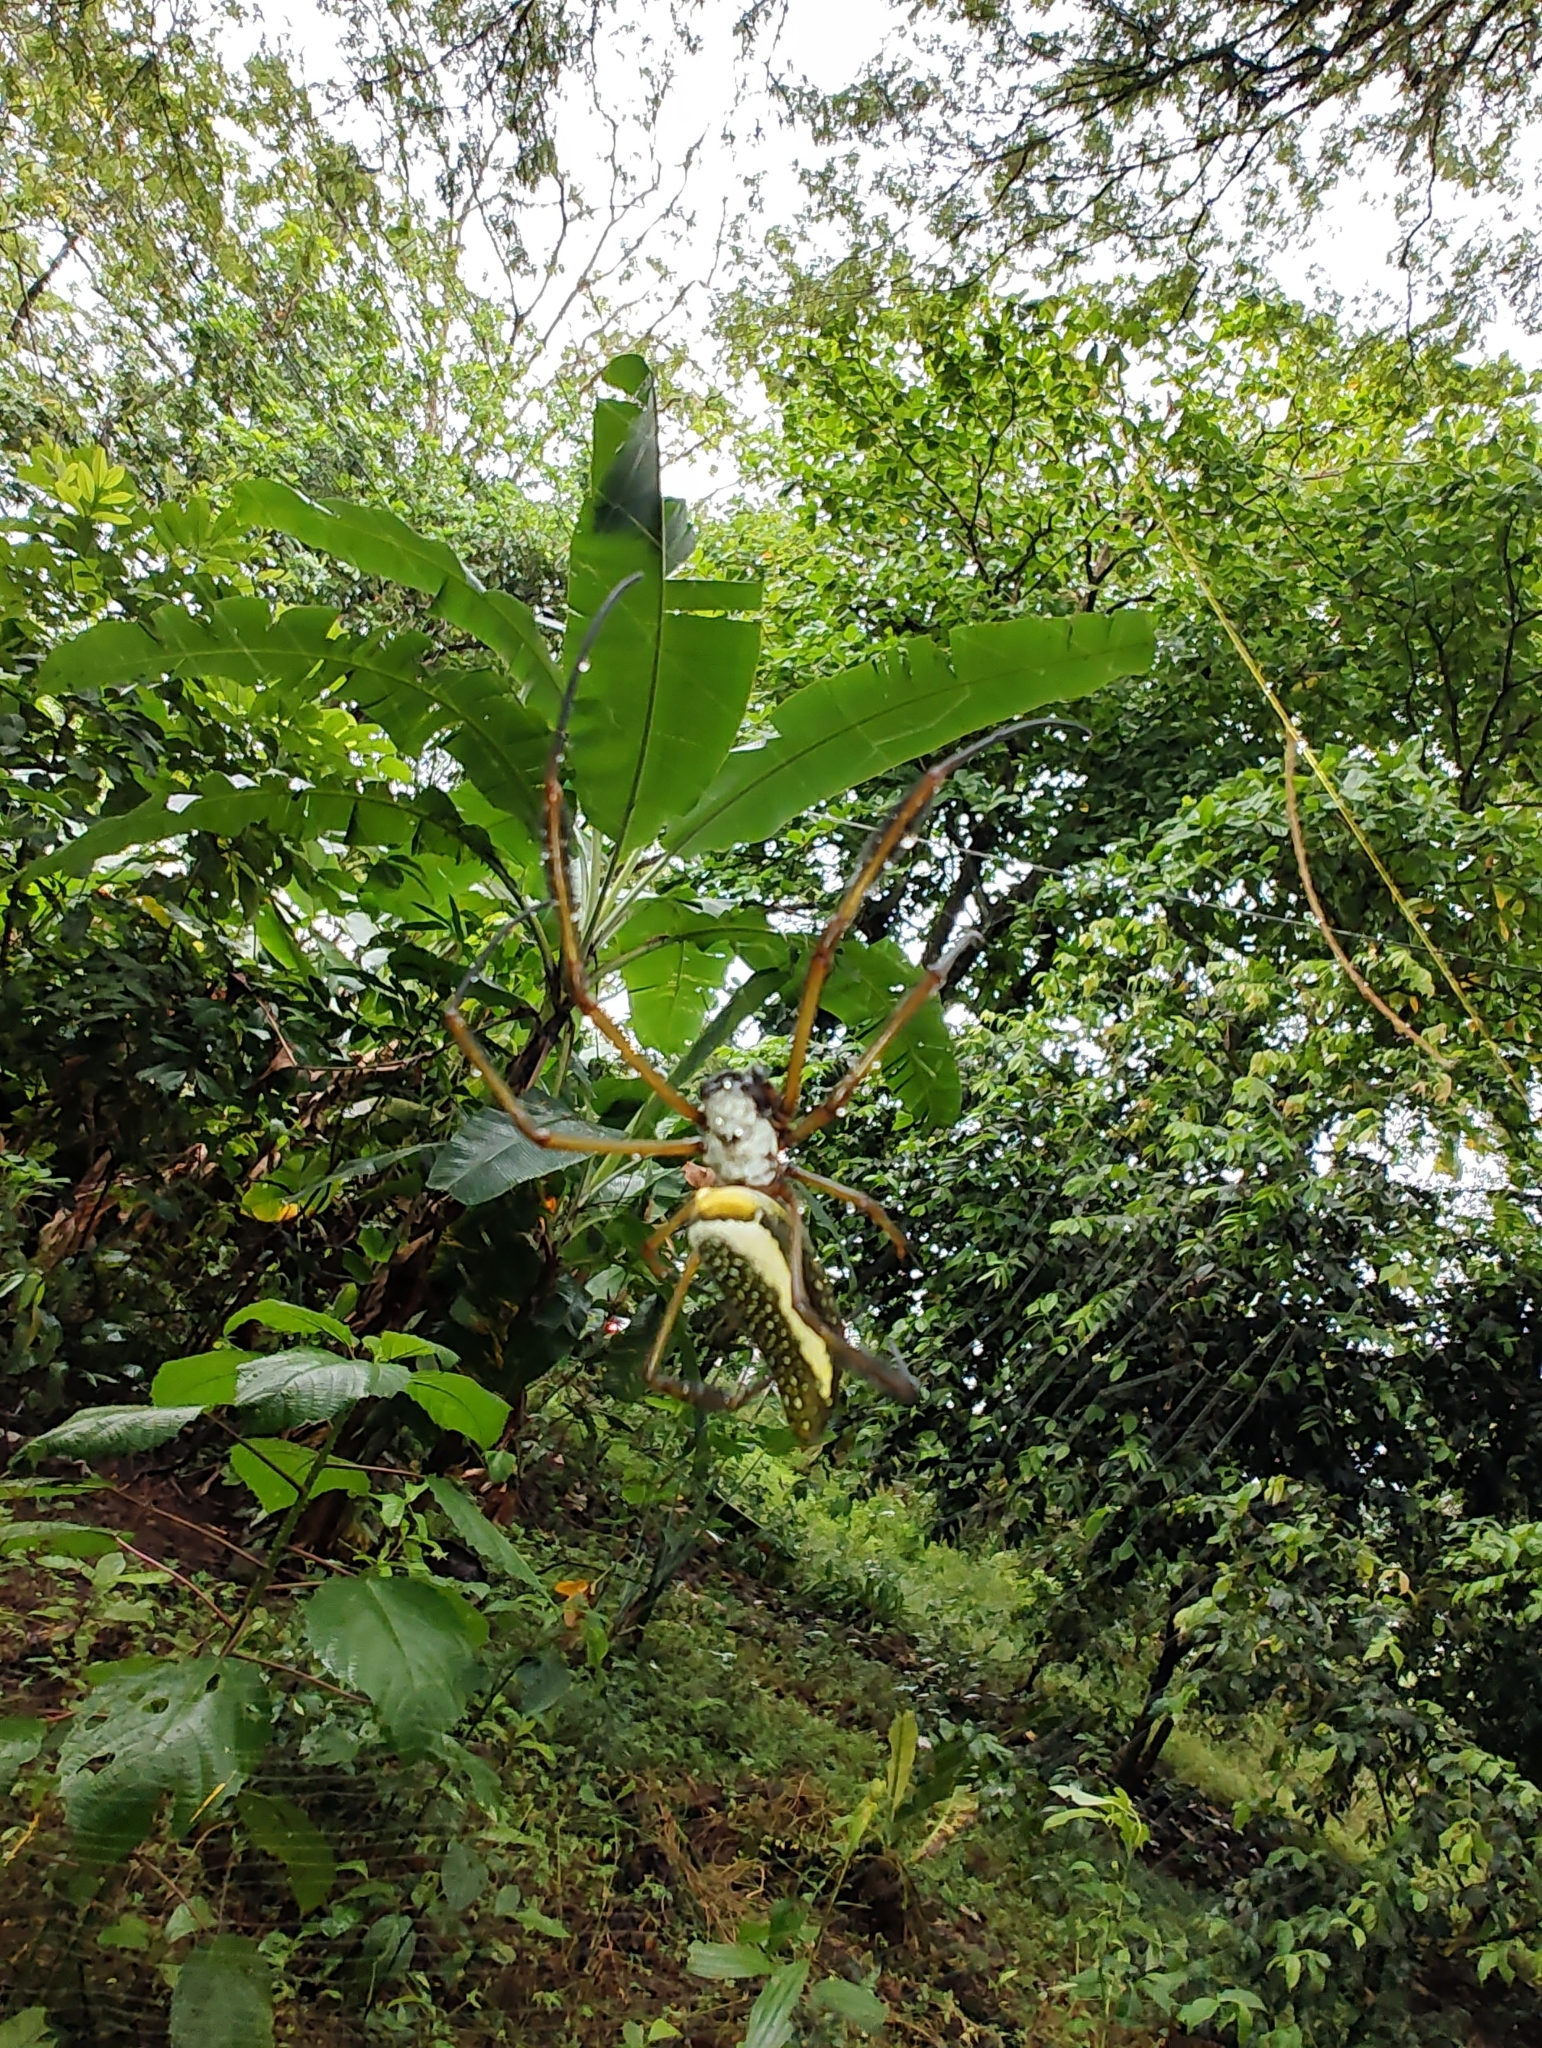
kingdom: Animalia
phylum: Arthropoda
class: Arachnida
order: Araneae
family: Araneidae
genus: Trichonephila
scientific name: Trichonephila clavipes
